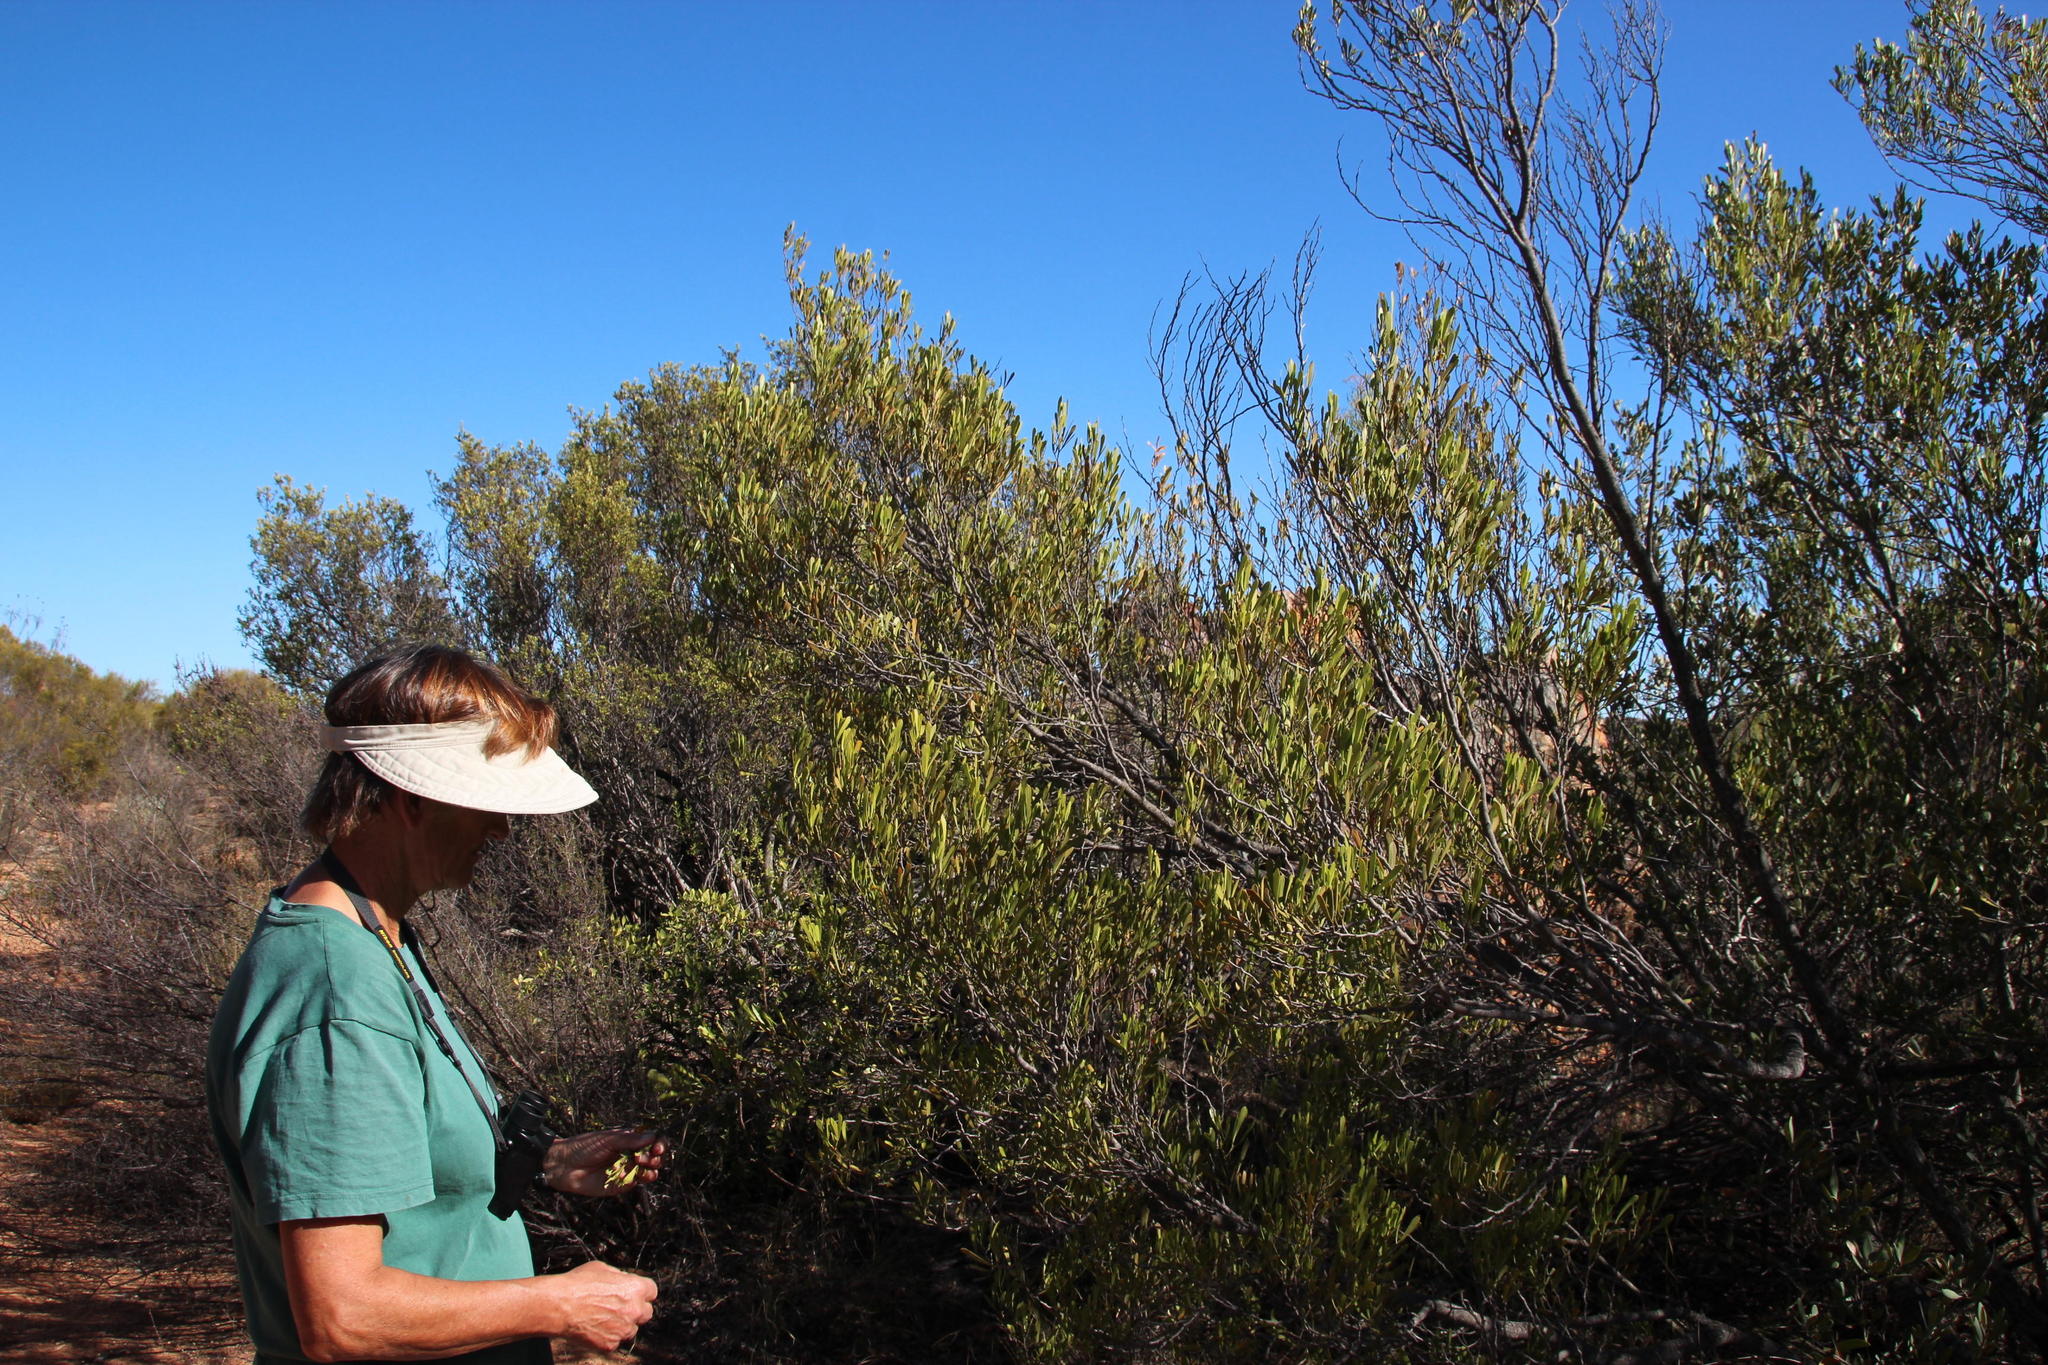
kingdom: Plantae
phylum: Tracheophyta
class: Magnoliopsida
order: Sapindales
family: Anacardiaceae
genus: Searsia
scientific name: Searsia rimosa
